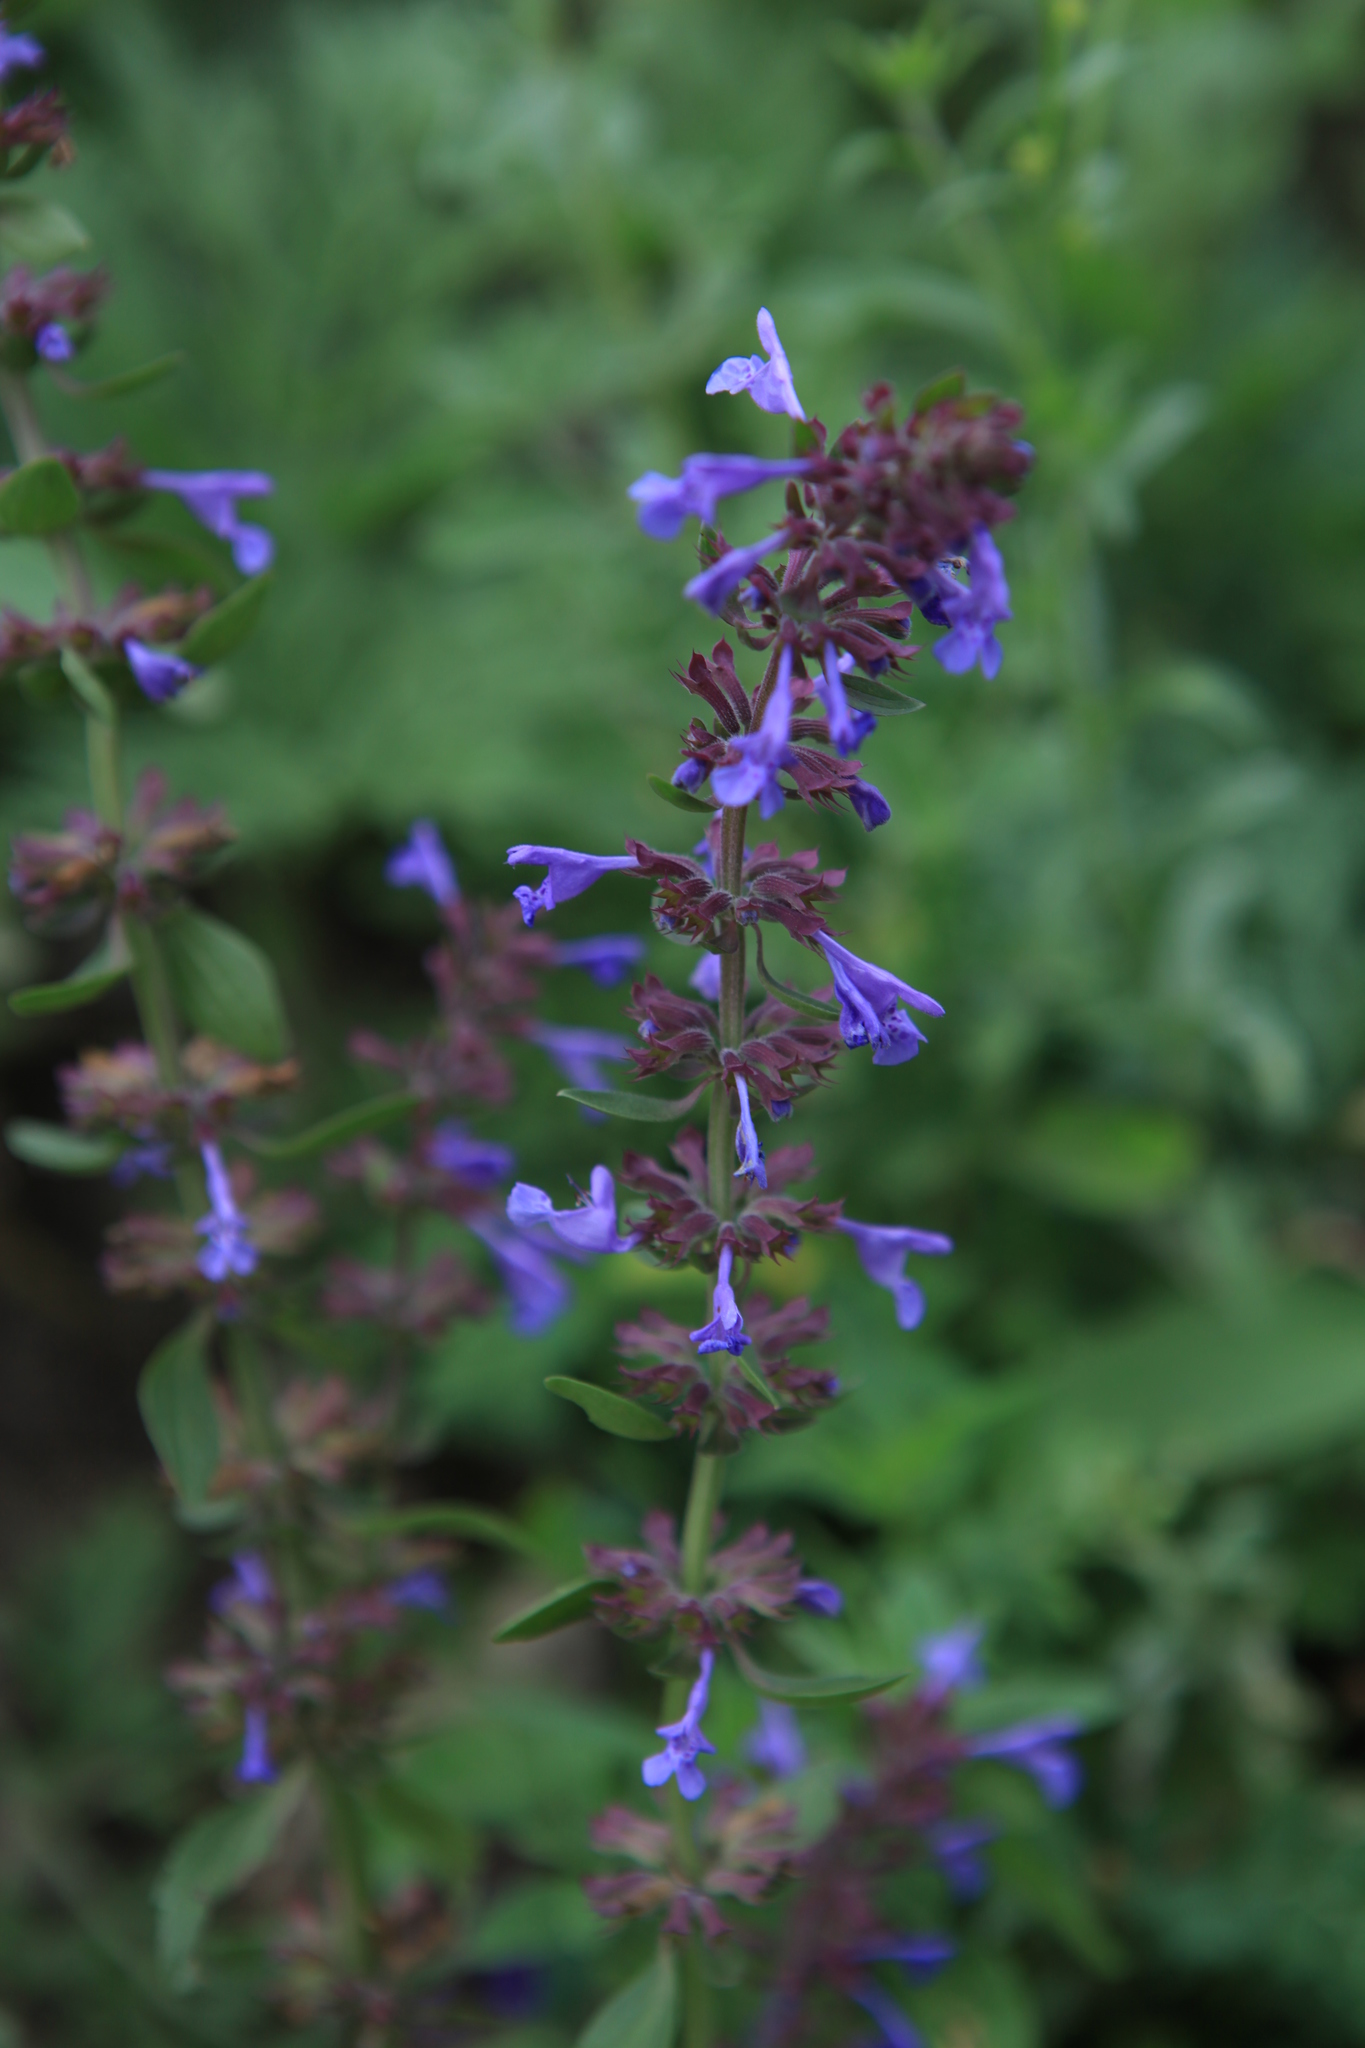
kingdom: Plantae
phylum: Tracheophyta
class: Magnoliopsida
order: Lamiales
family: Lamiaceae
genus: Dracocephalum
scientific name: Dracocephalum nutans
